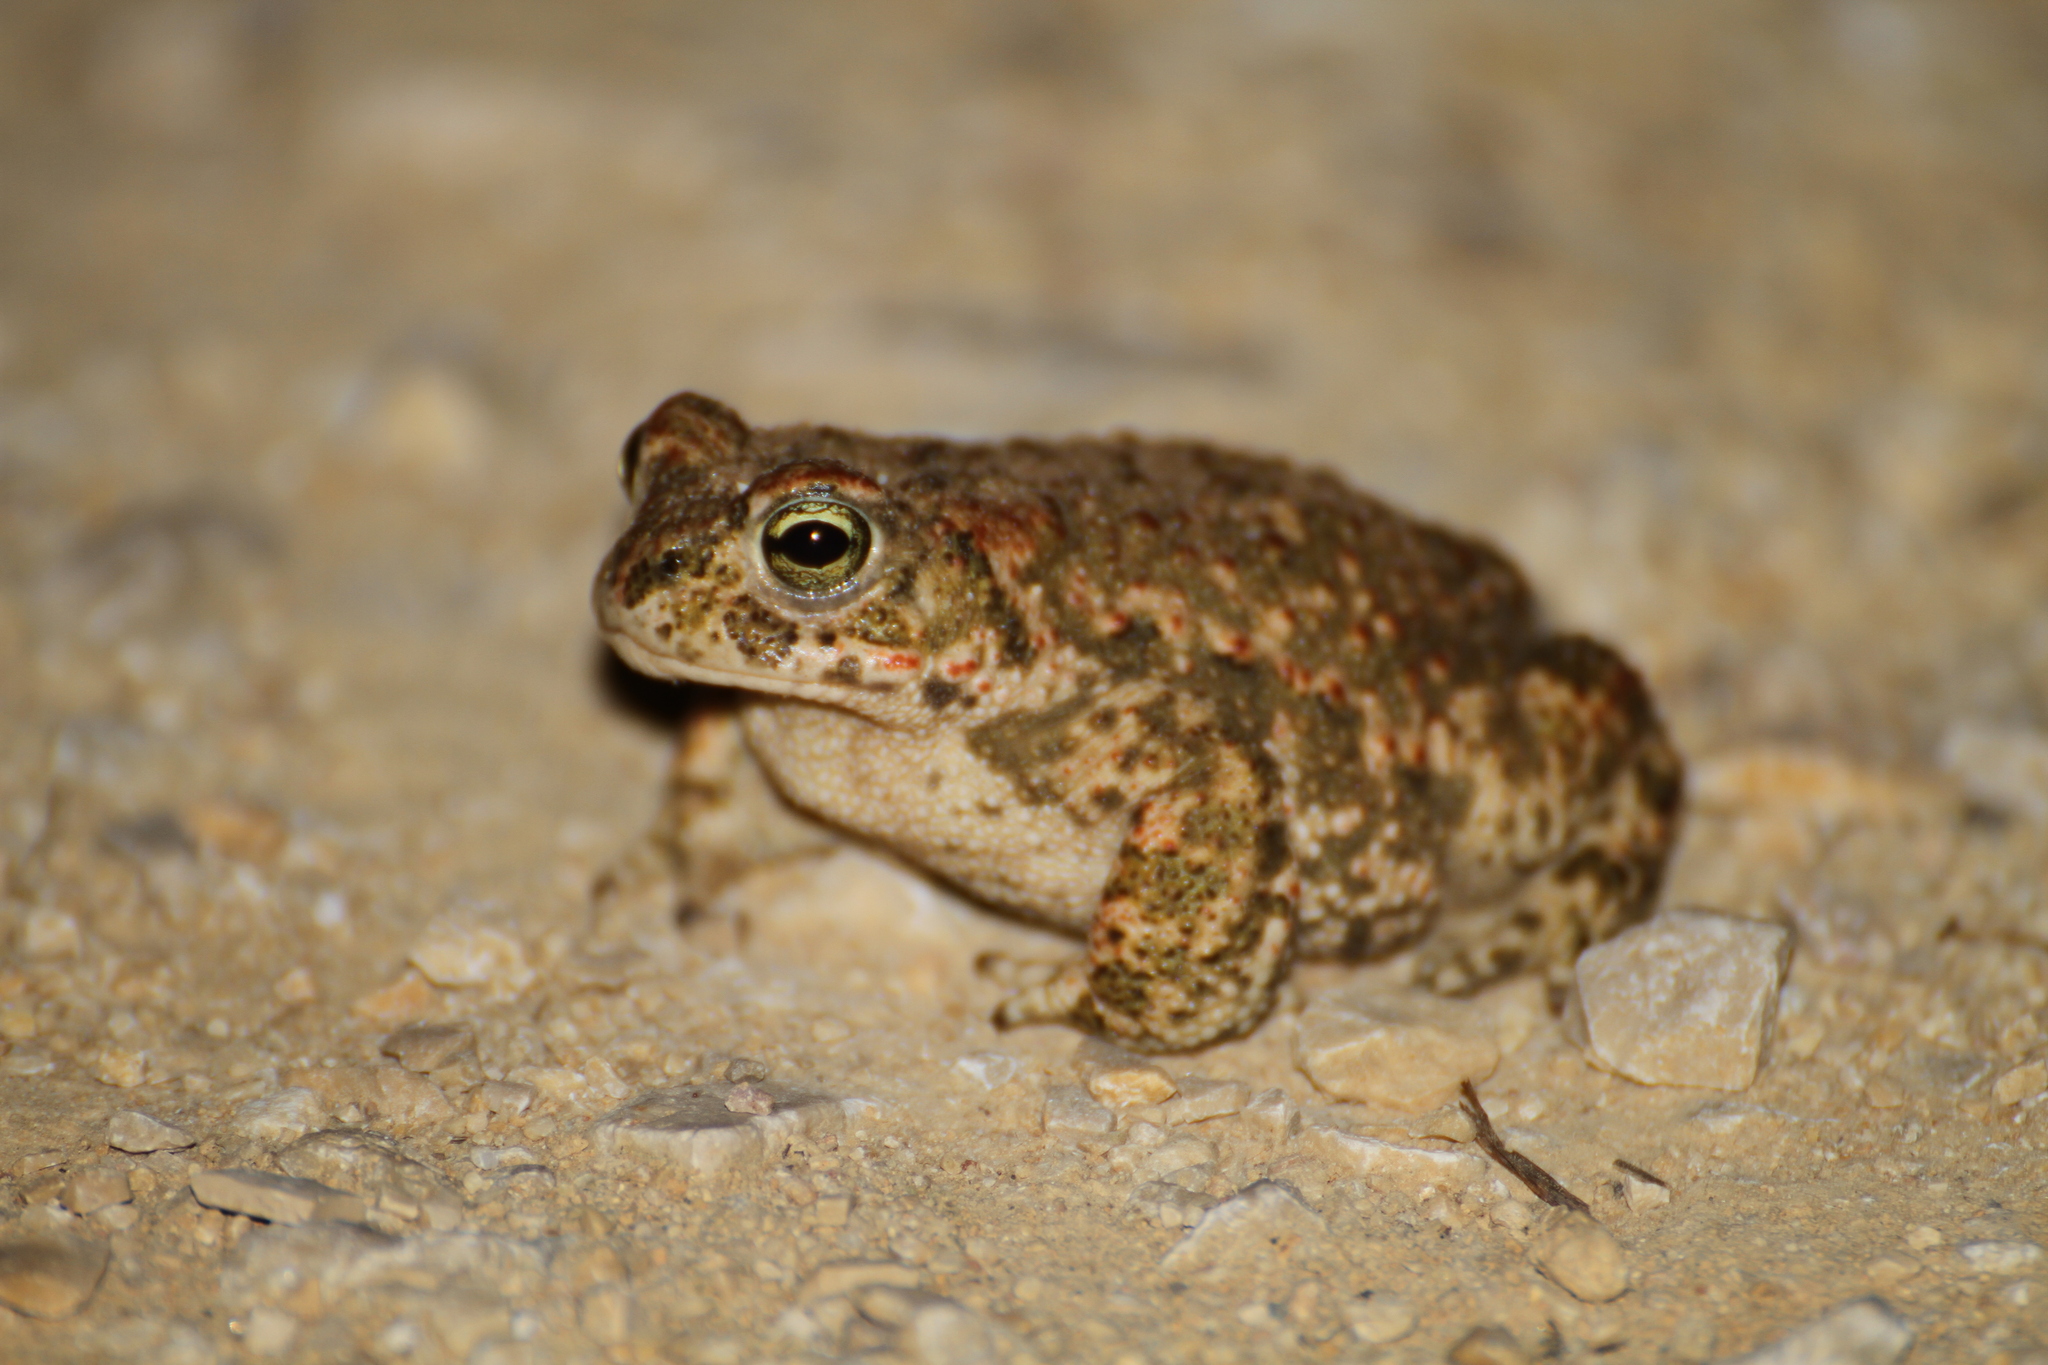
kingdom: Animalia
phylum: Chordata
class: Amphibia
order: Anura
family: Bufonidae
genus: Epidalea
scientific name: Epidalea calamita
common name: Natterjack toad
